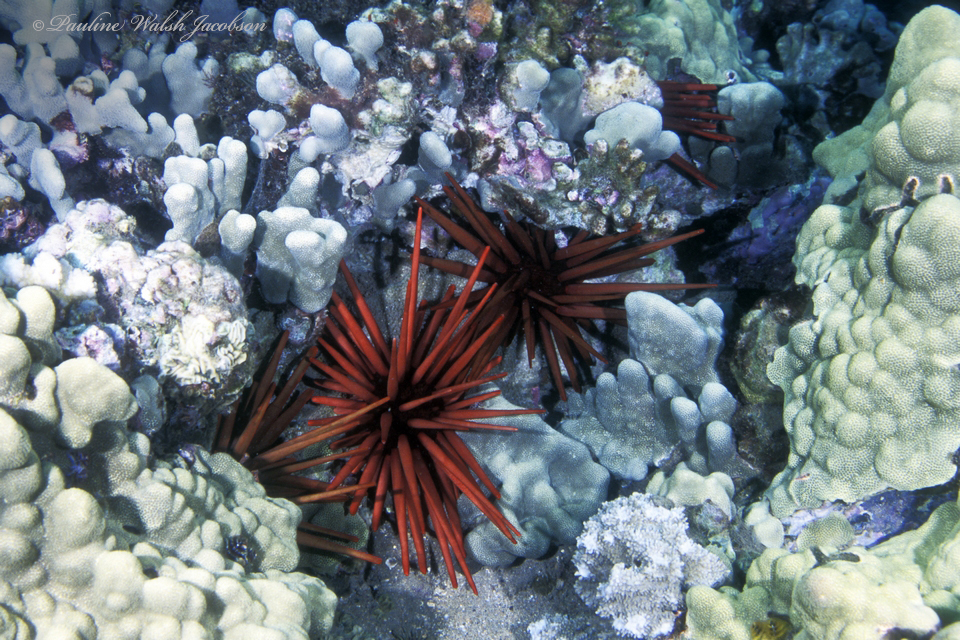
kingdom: Animalia
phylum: Echinodermata
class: Echinoidea
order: Camarodonta
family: Echinometridae
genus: Heterocentrotus
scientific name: Heterocentrotus mamillatus
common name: Slate pencil urchin
